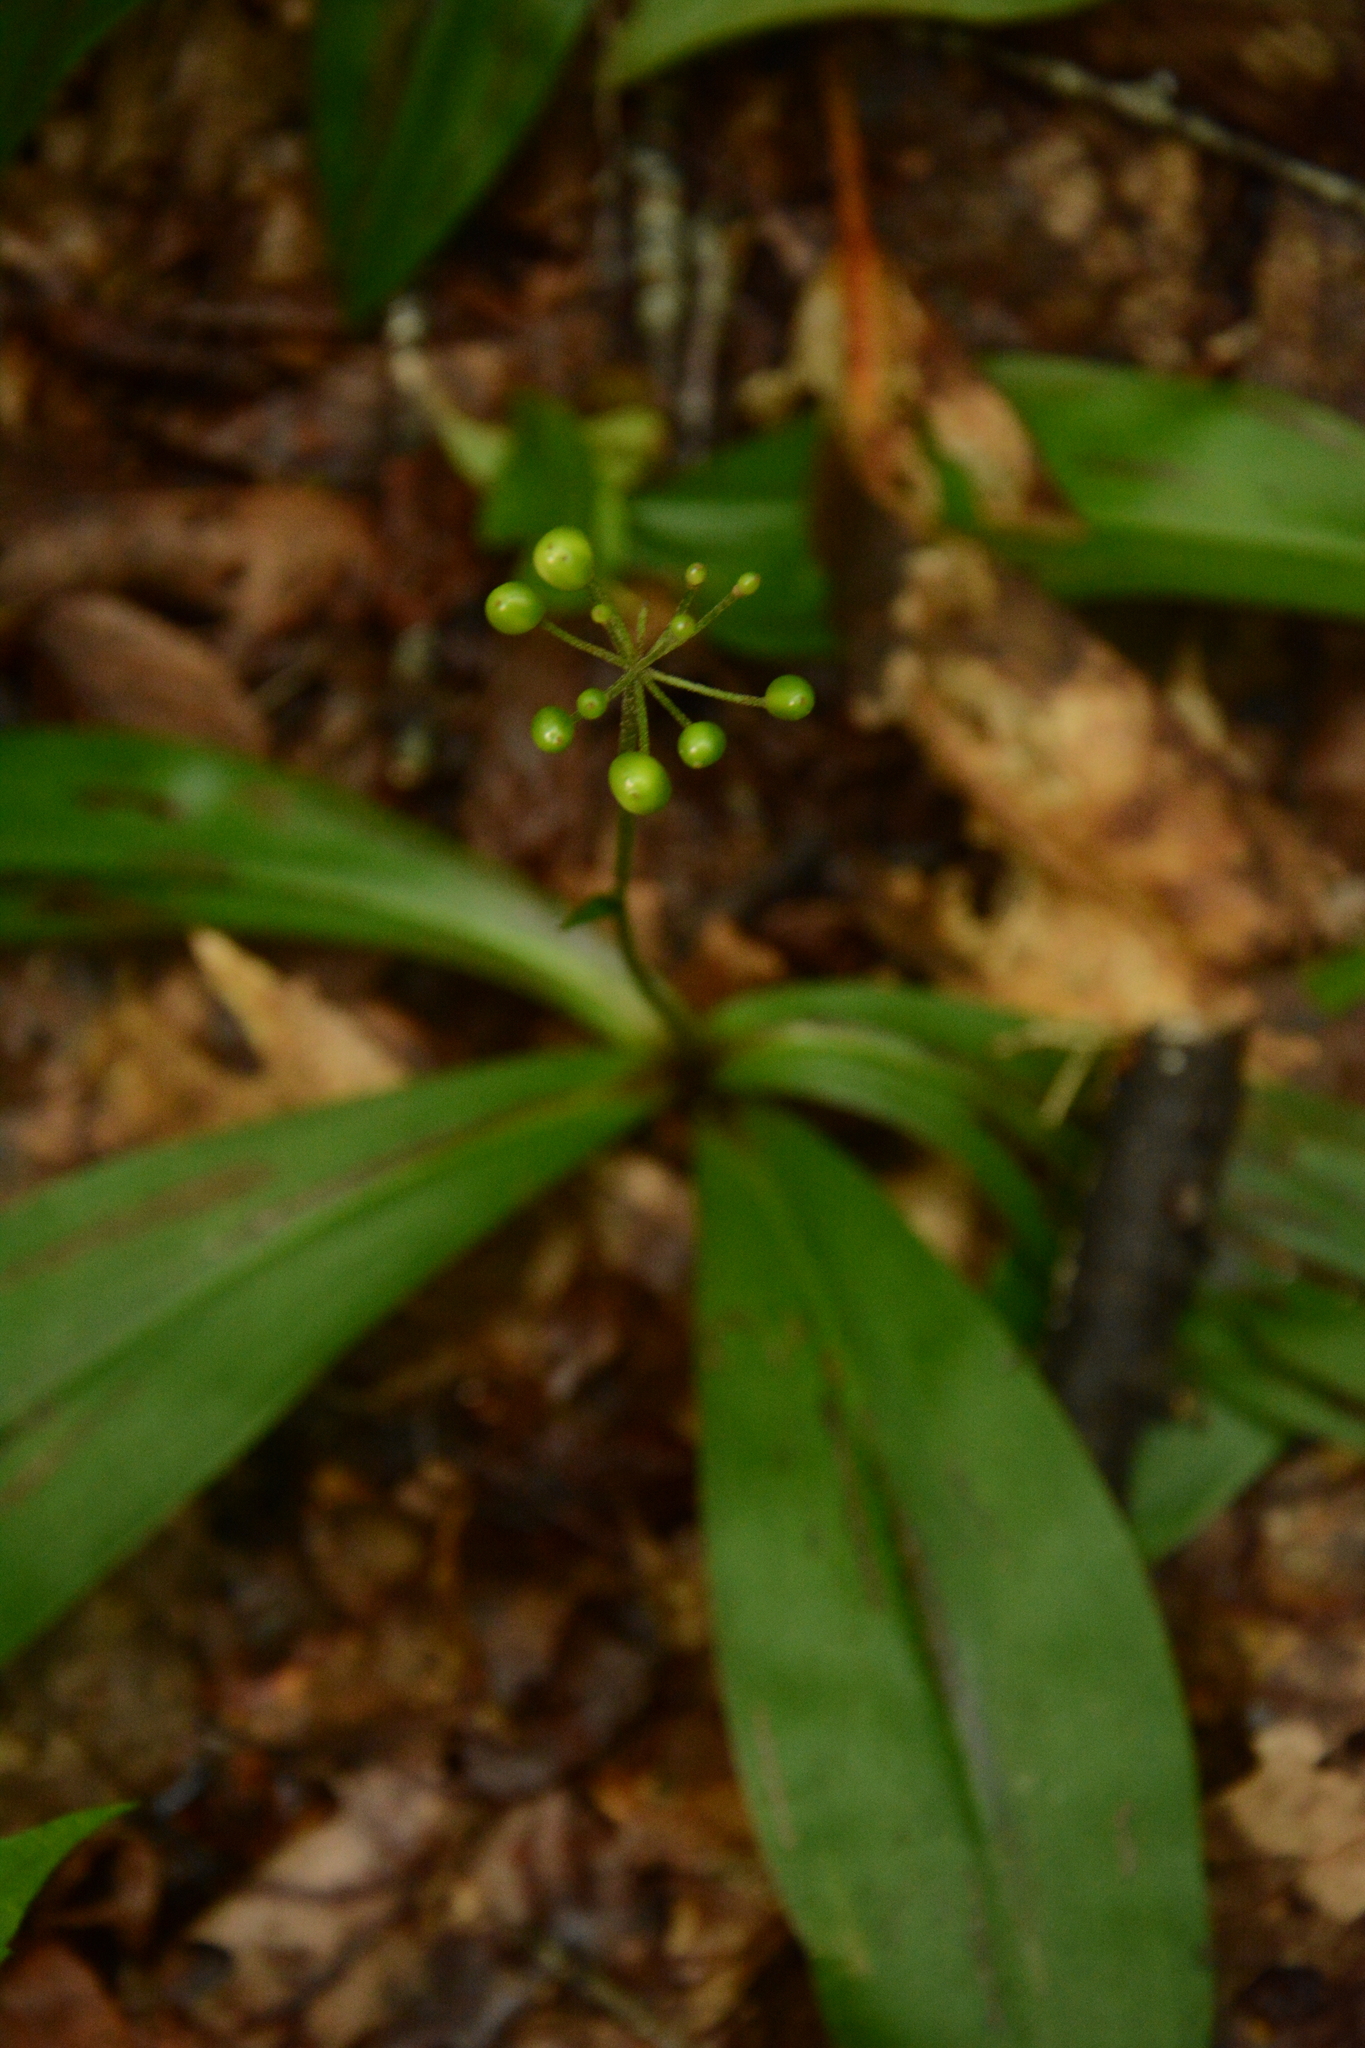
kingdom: Plantae
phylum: Tracheophyta
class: Liliopsida
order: Liliales
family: Liliaceae
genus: Clintonia
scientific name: Clintonia umbellulata
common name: Speckle wood-lily
